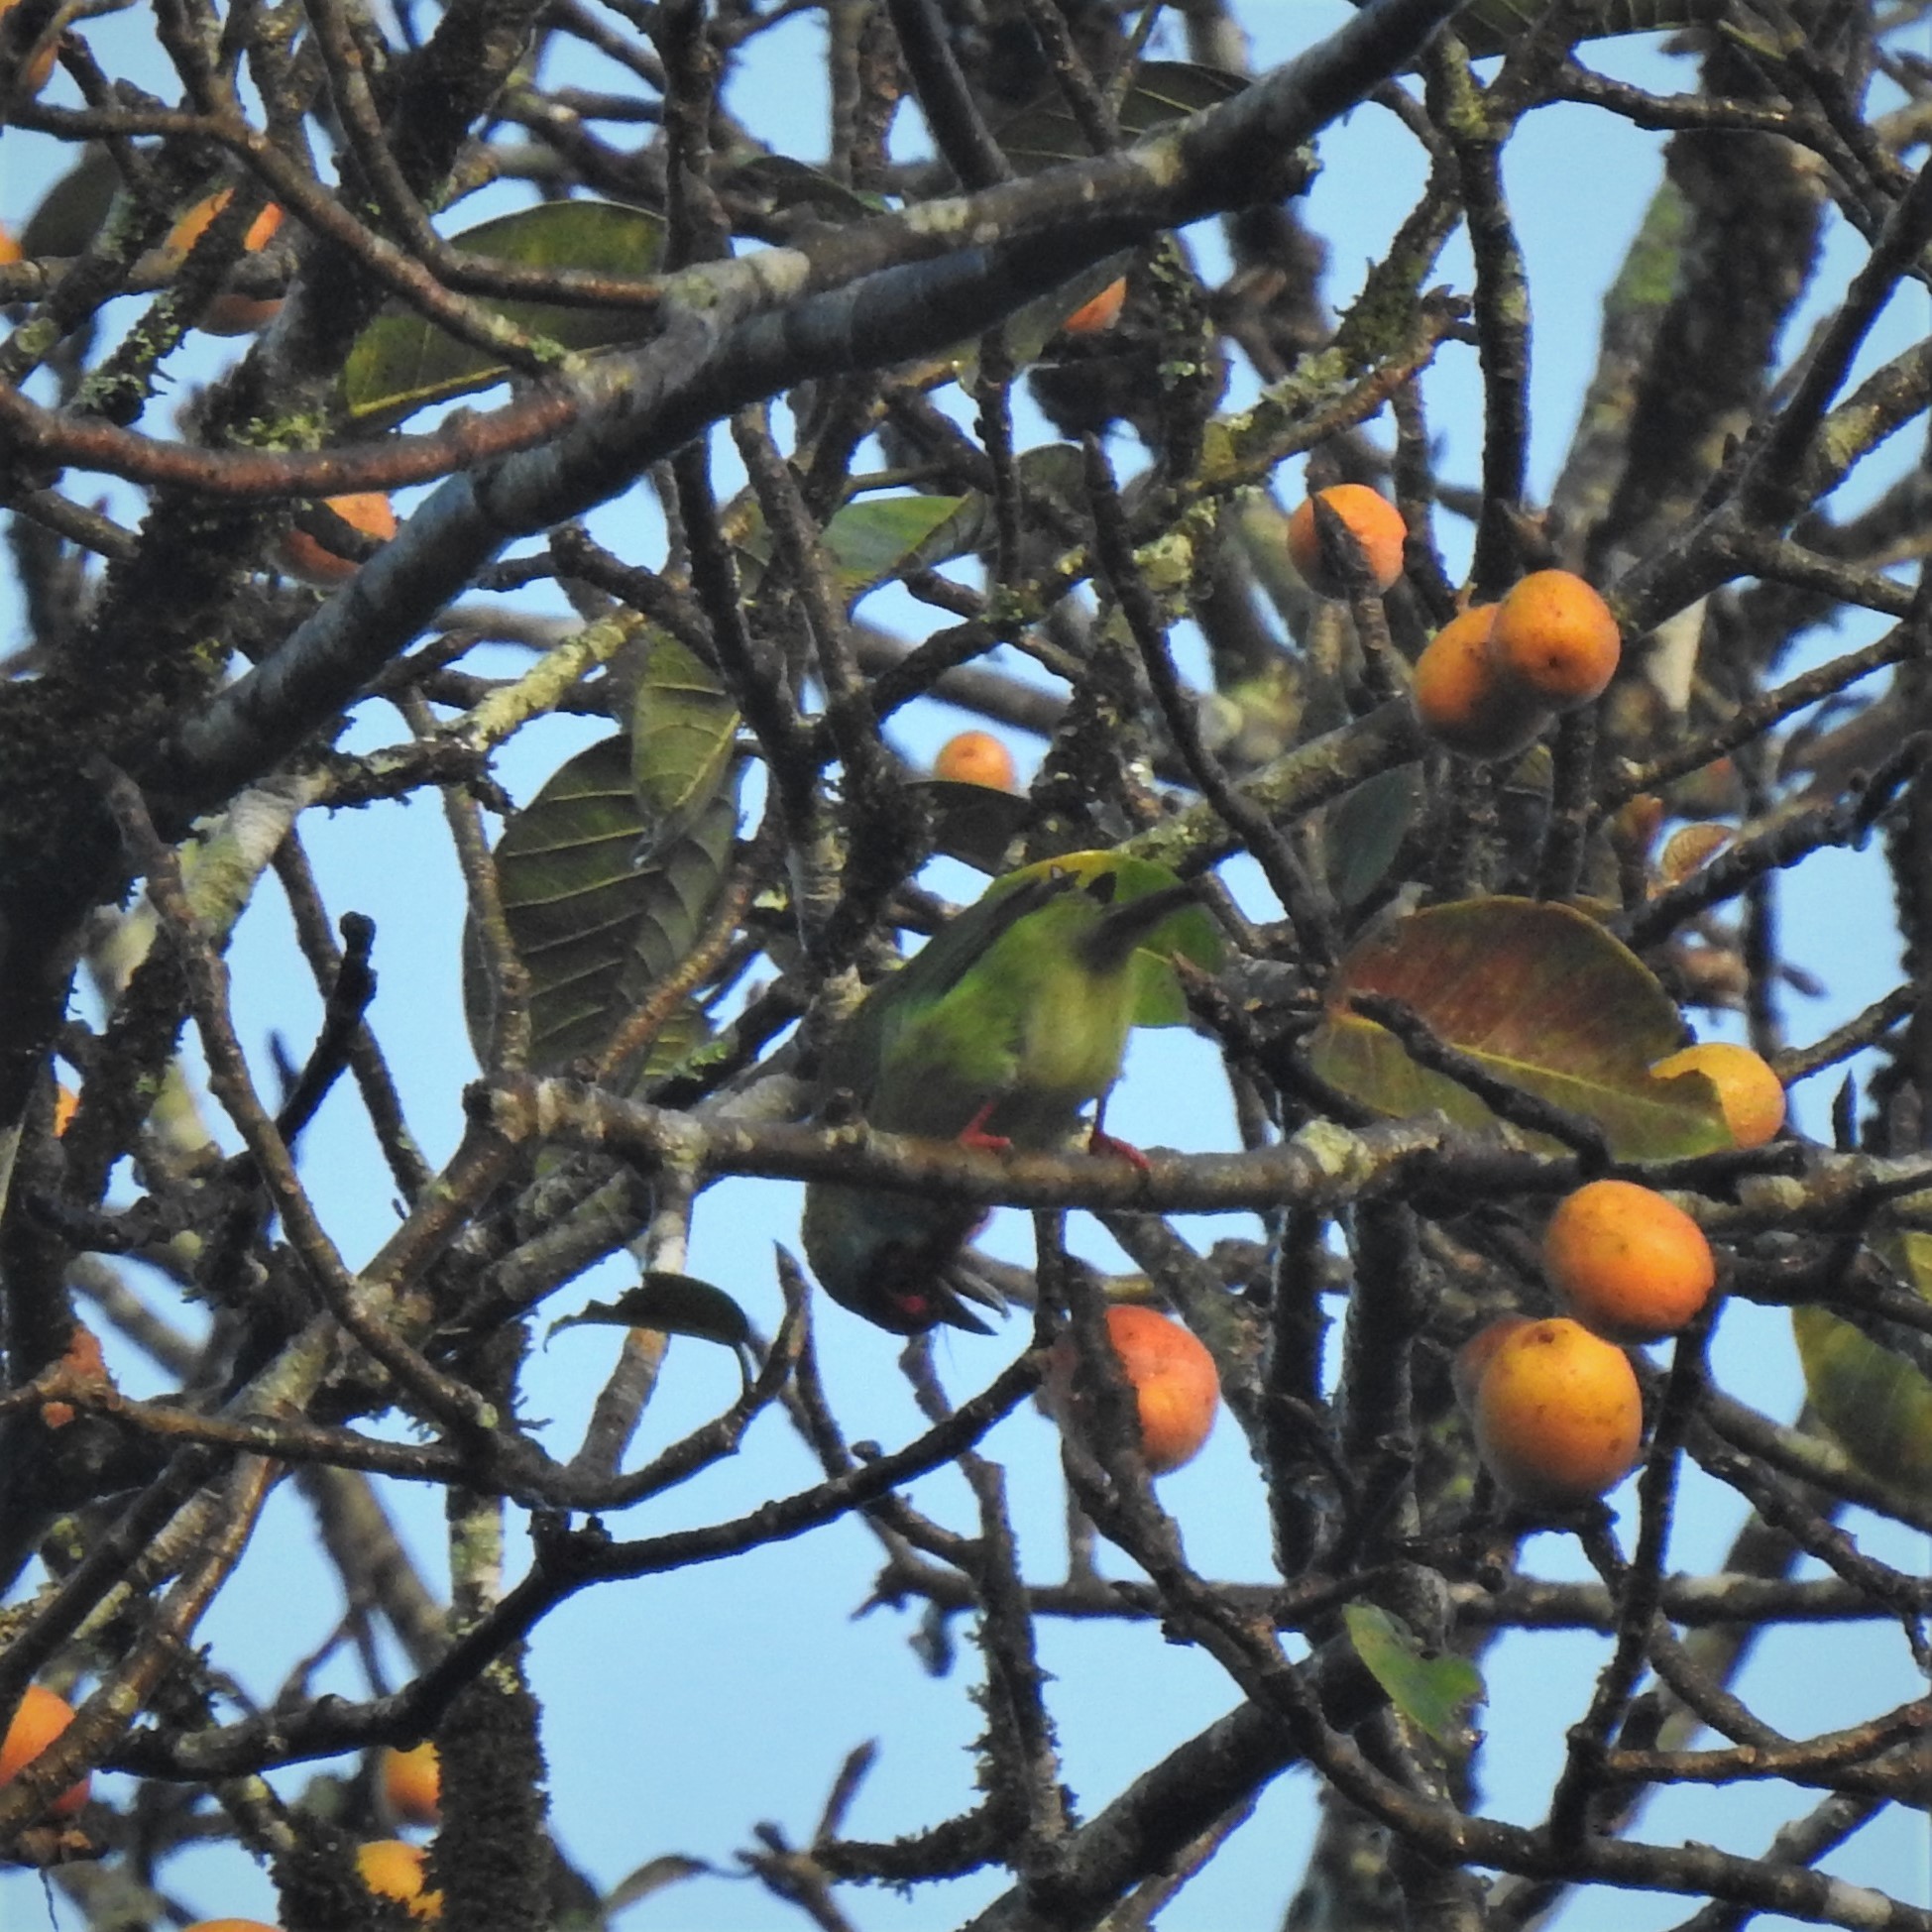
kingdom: Animalia
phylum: Chordata
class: Aves
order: Piciformes
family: Megalaimidae
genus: Psilopogon
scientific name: Psilopogon malabaricus
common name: Malabar barbet
